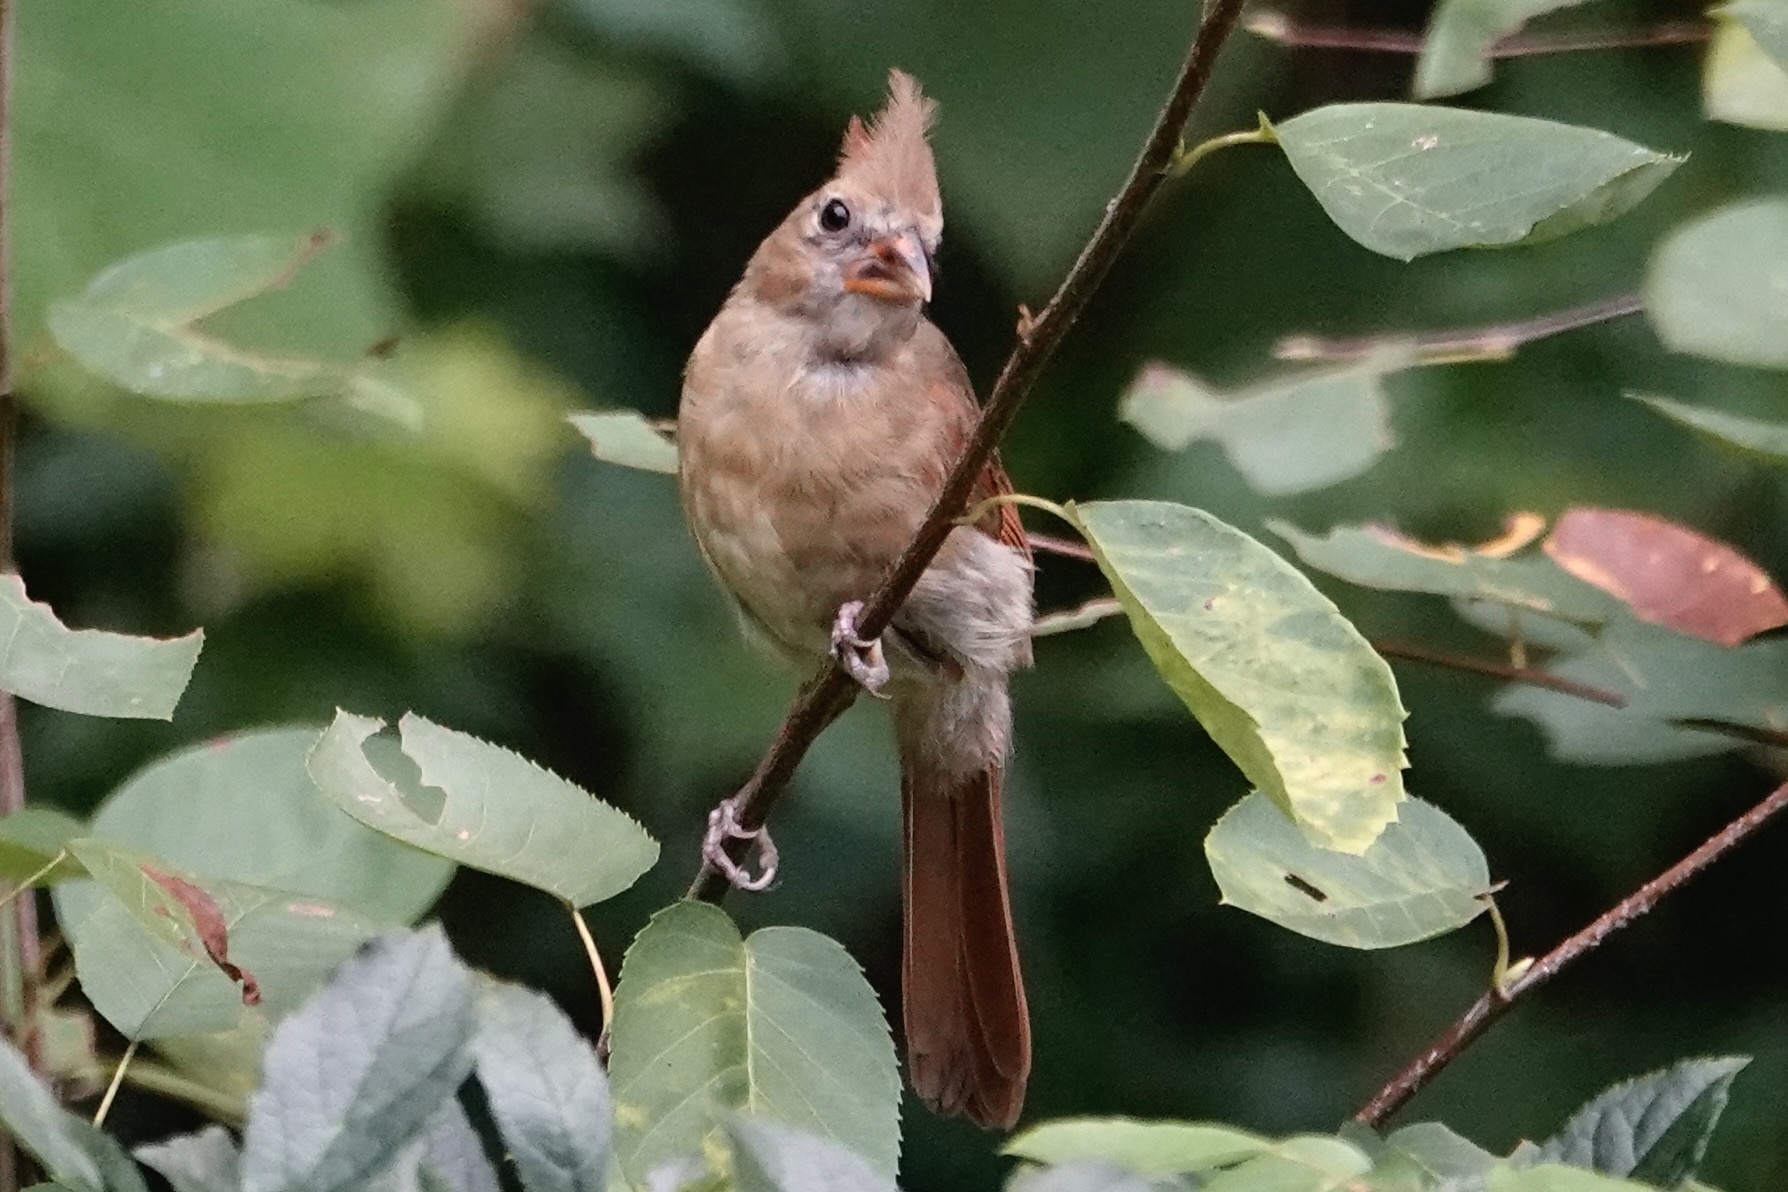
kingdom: Animalia
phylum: Chordata
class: Aves
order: Passeriformes
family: Cardinalidae
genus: Cardinalis
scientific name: Cardinalis cardinalis
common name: Northern cardinal
